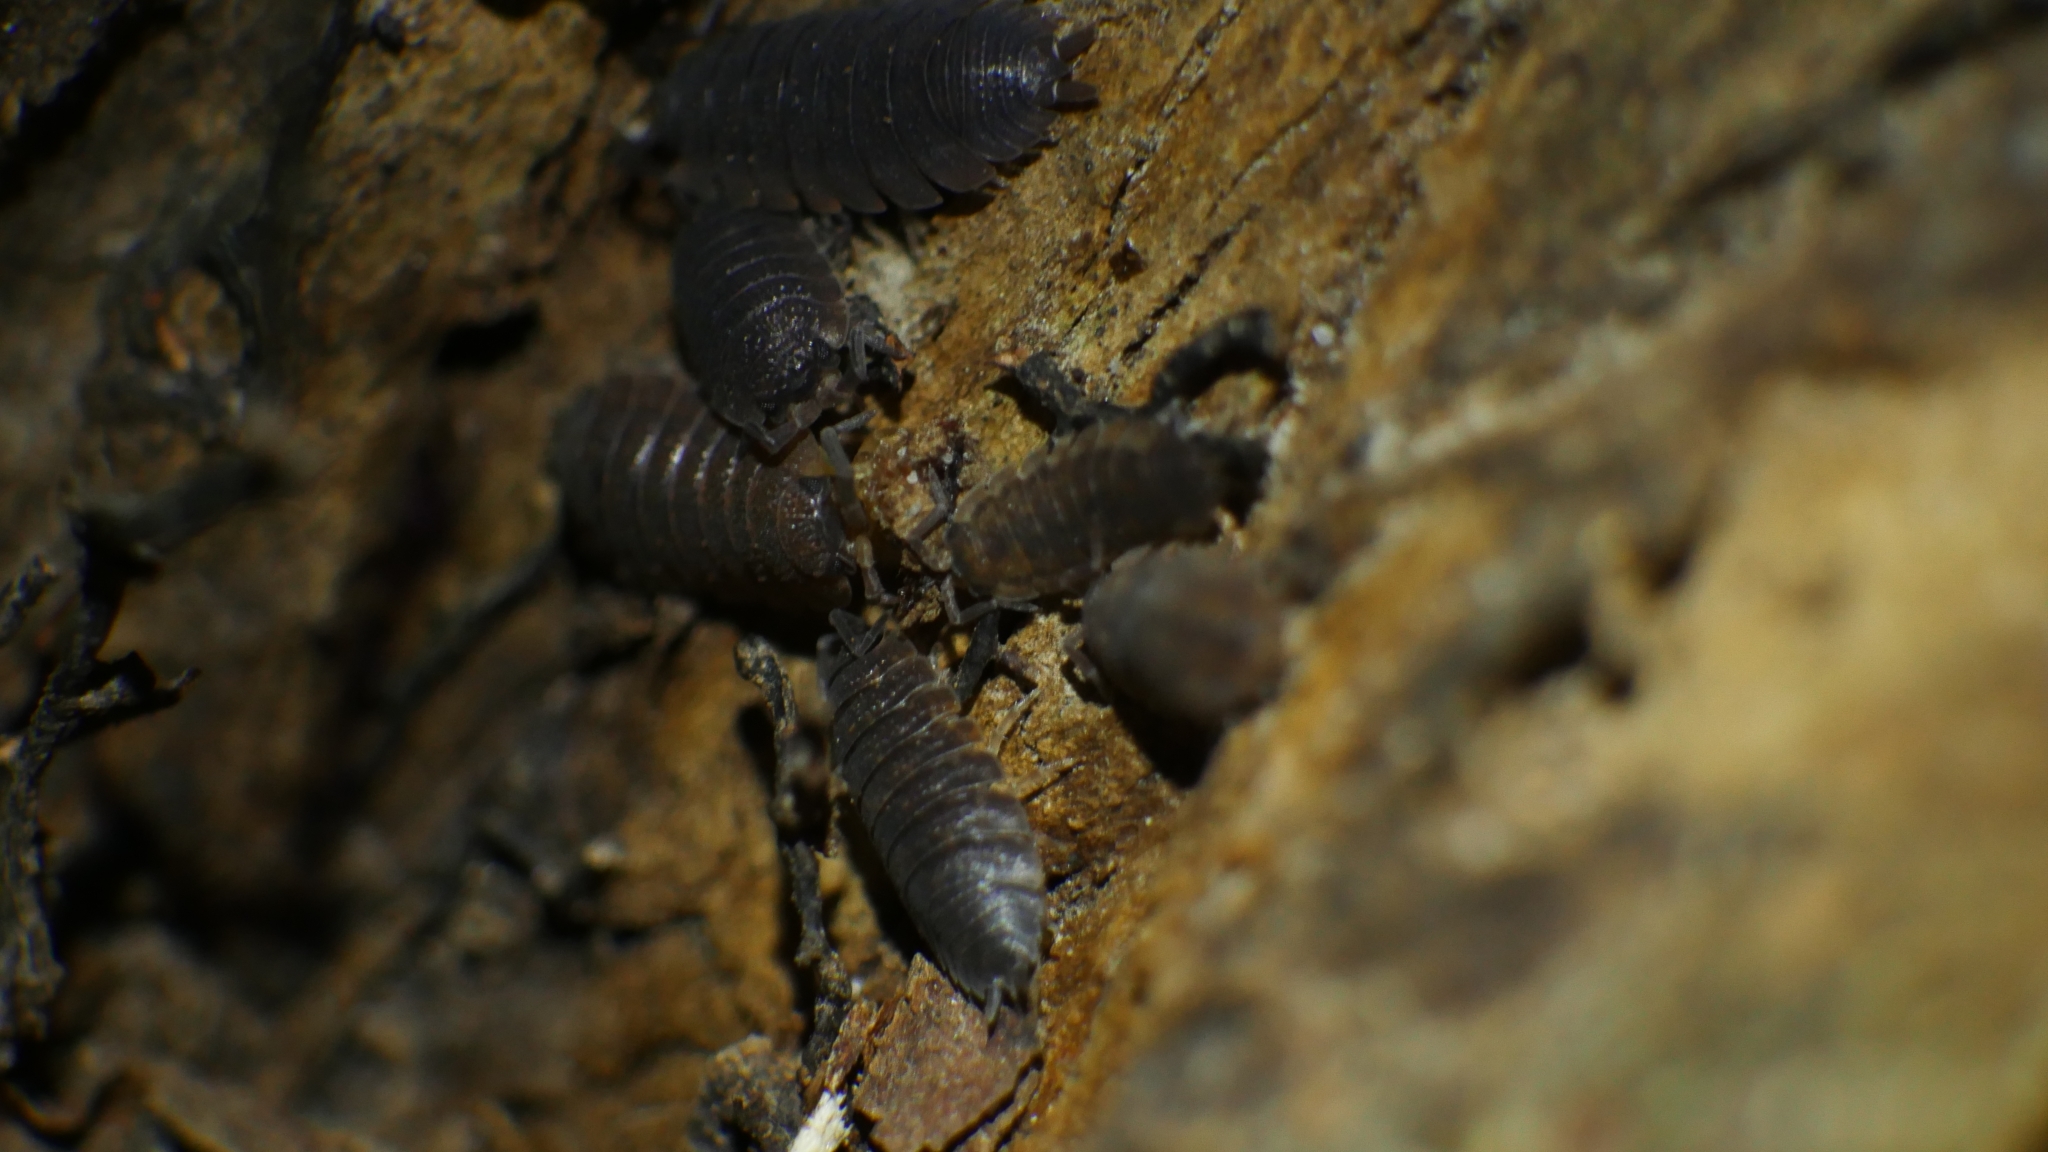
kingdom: Animalia
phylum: Arthropoda
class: Malacostraca
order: Isopoda
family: Porcellionidae
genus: Porcellio
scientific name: Porcellio scaber
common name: Common rough woodlouse
